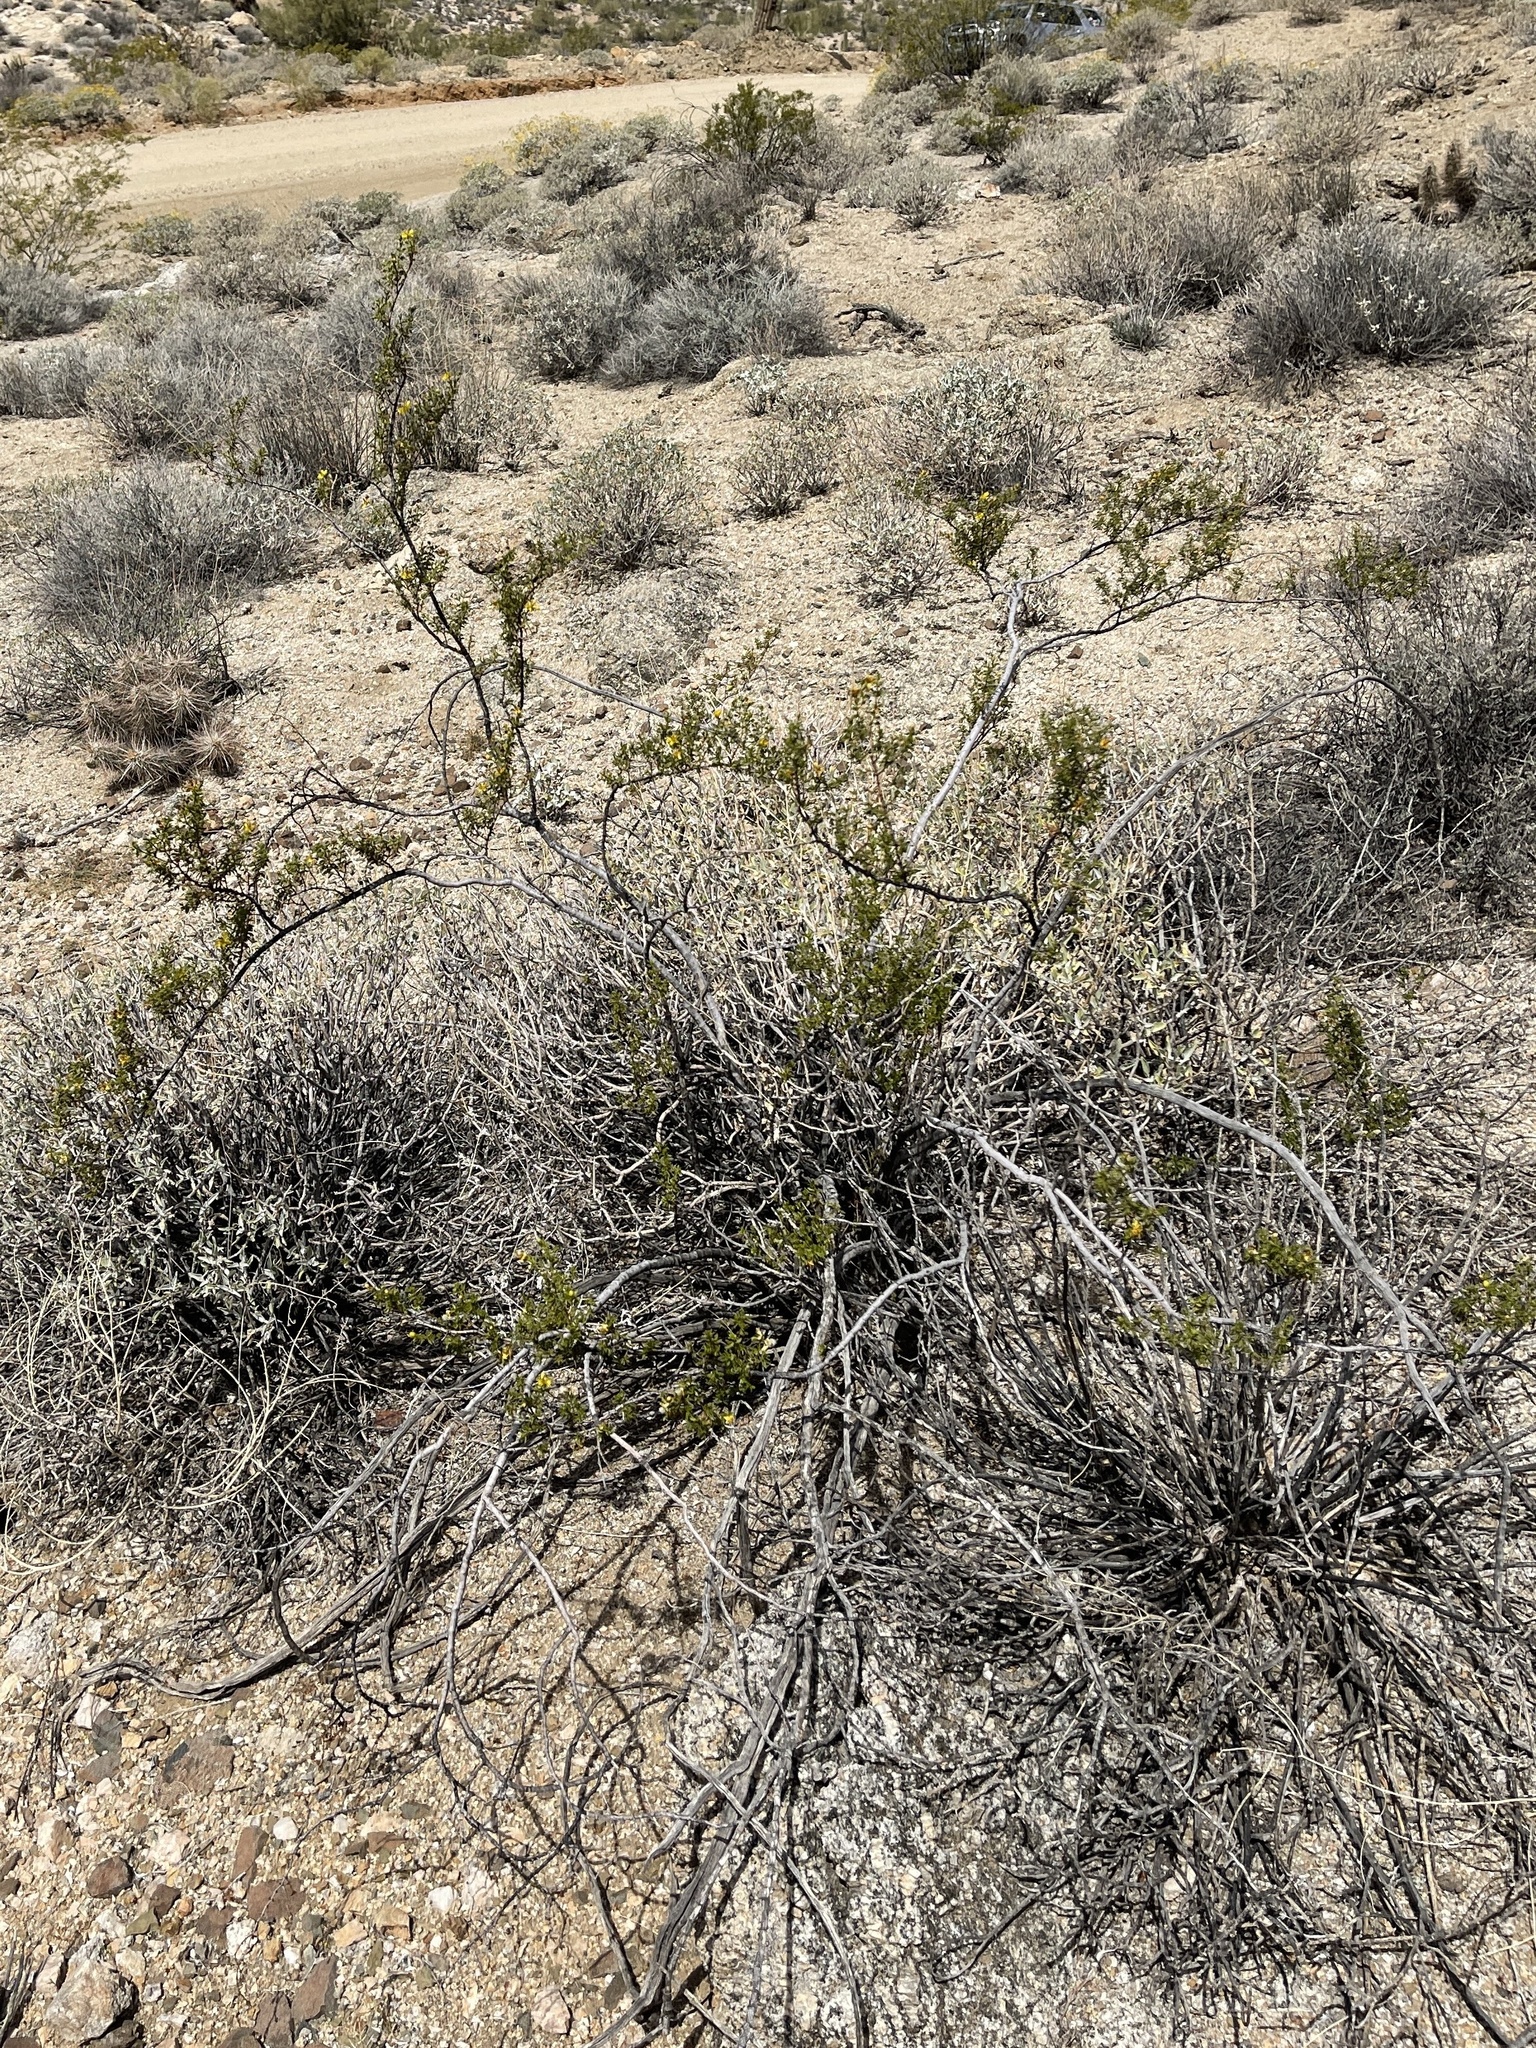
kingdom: Plantae
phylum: Tracheophyta
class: Magnoliopsida
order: Zygophyllales
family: Zygophyllaceae
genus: Larrea
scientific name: Larrea tridentata
